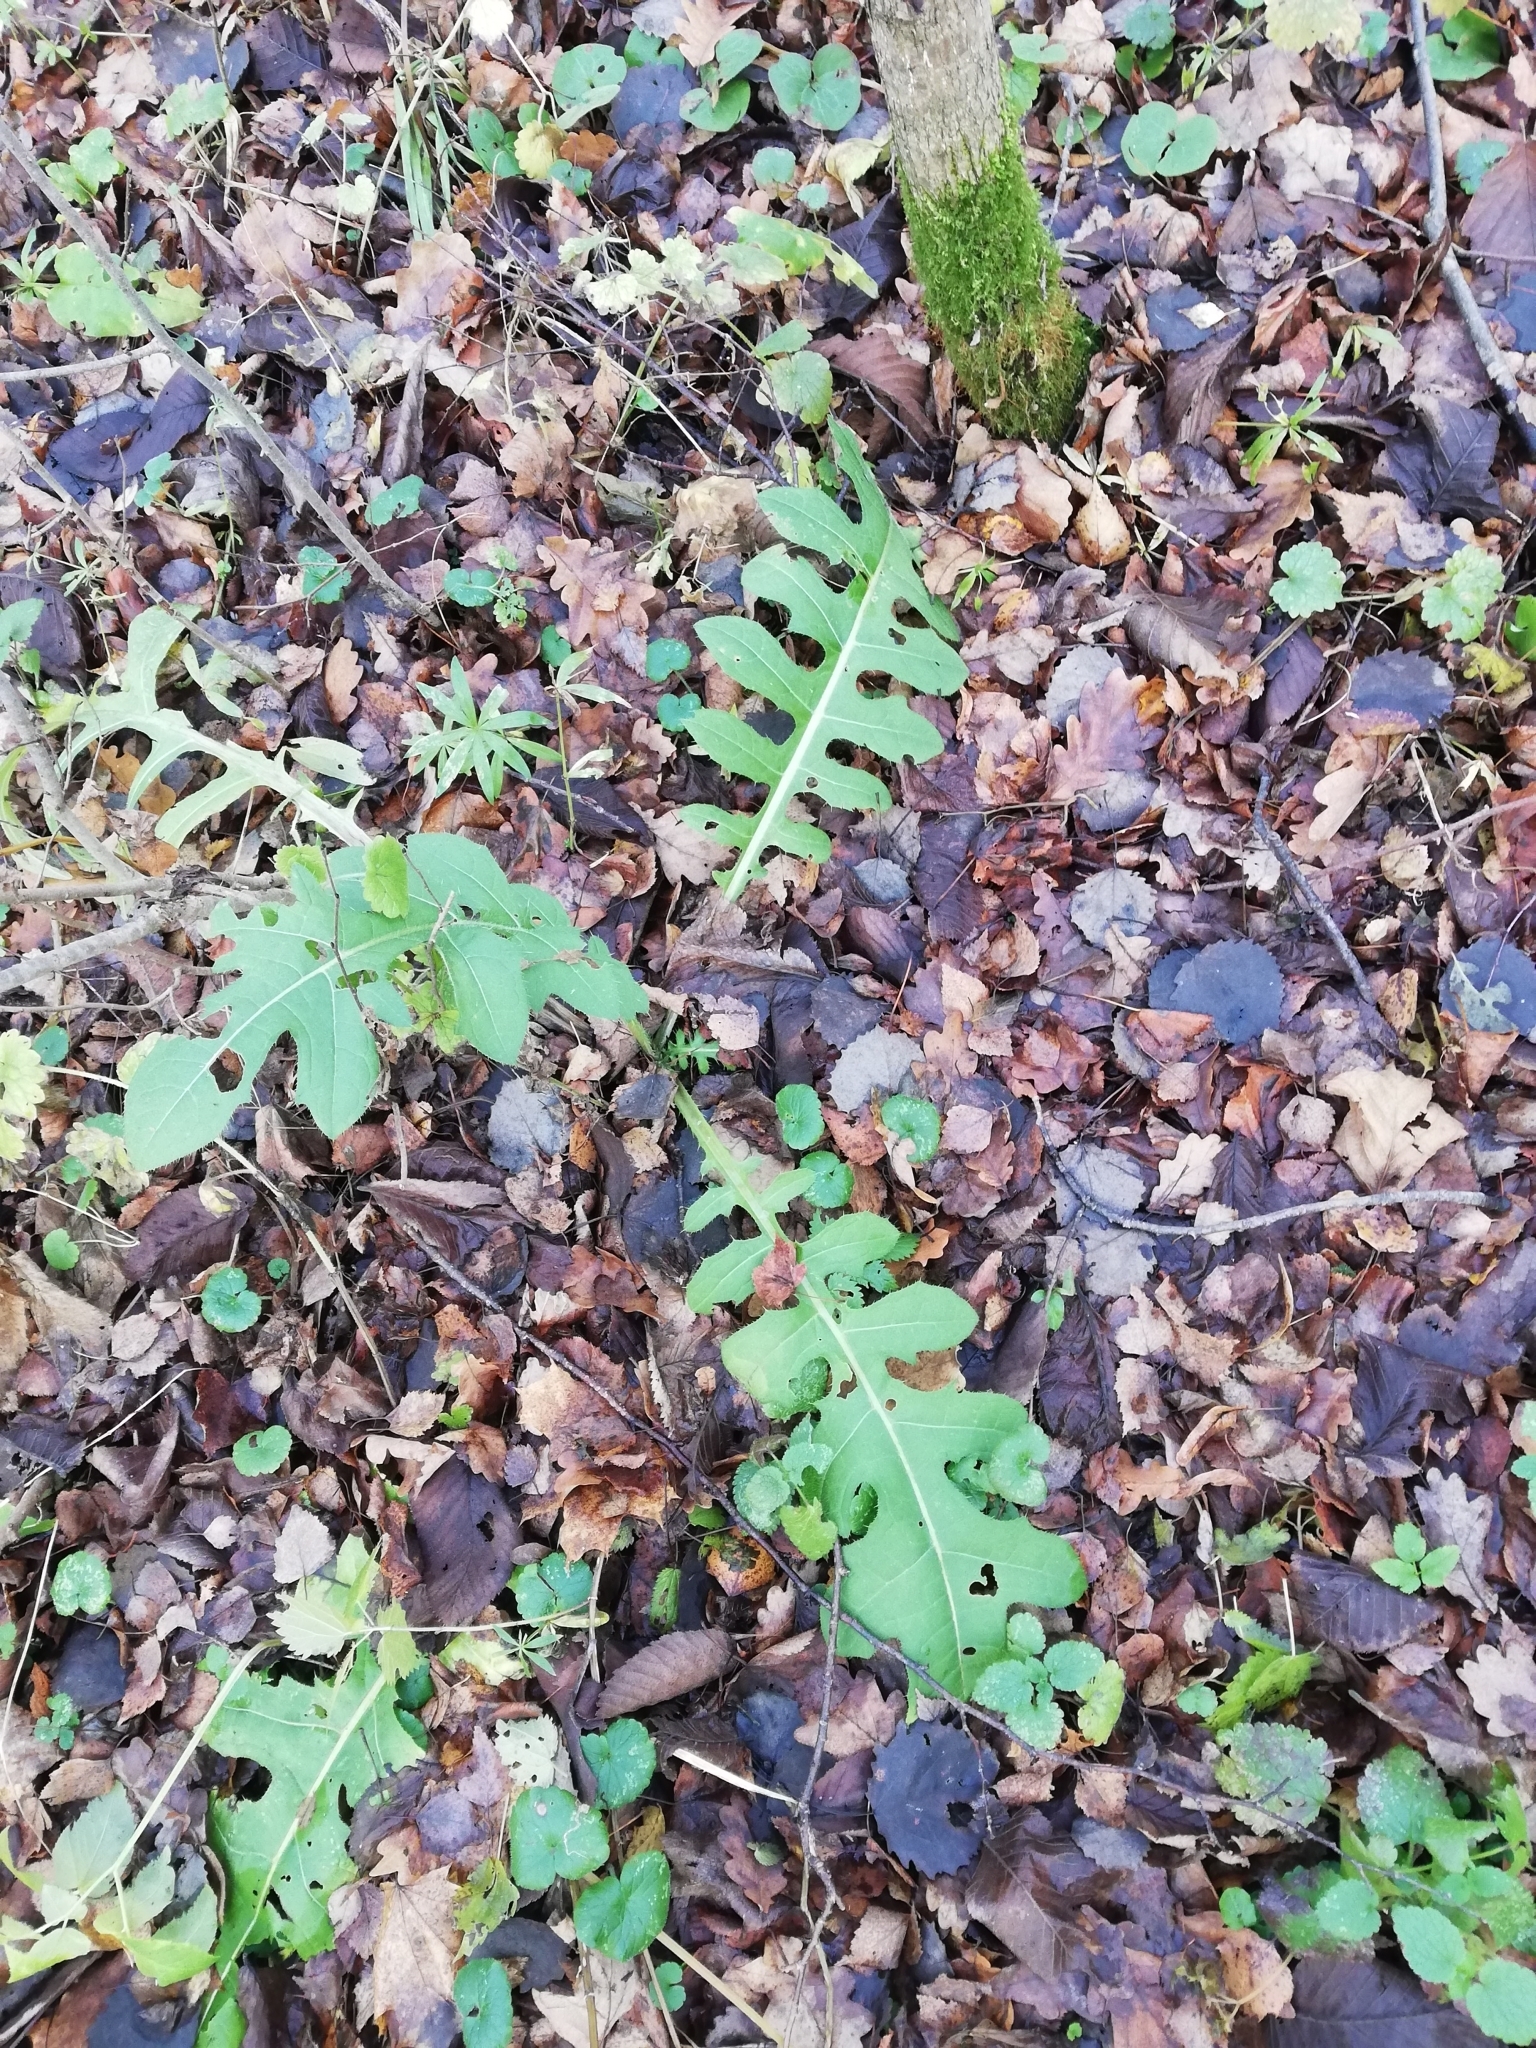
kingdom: Plantae
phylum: Tracheophyta
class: Magnoliopsida
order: Asterales
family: Asteraceae
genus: Cirsium
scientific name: Cirsium oleraceum
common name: Cabbage thistle
